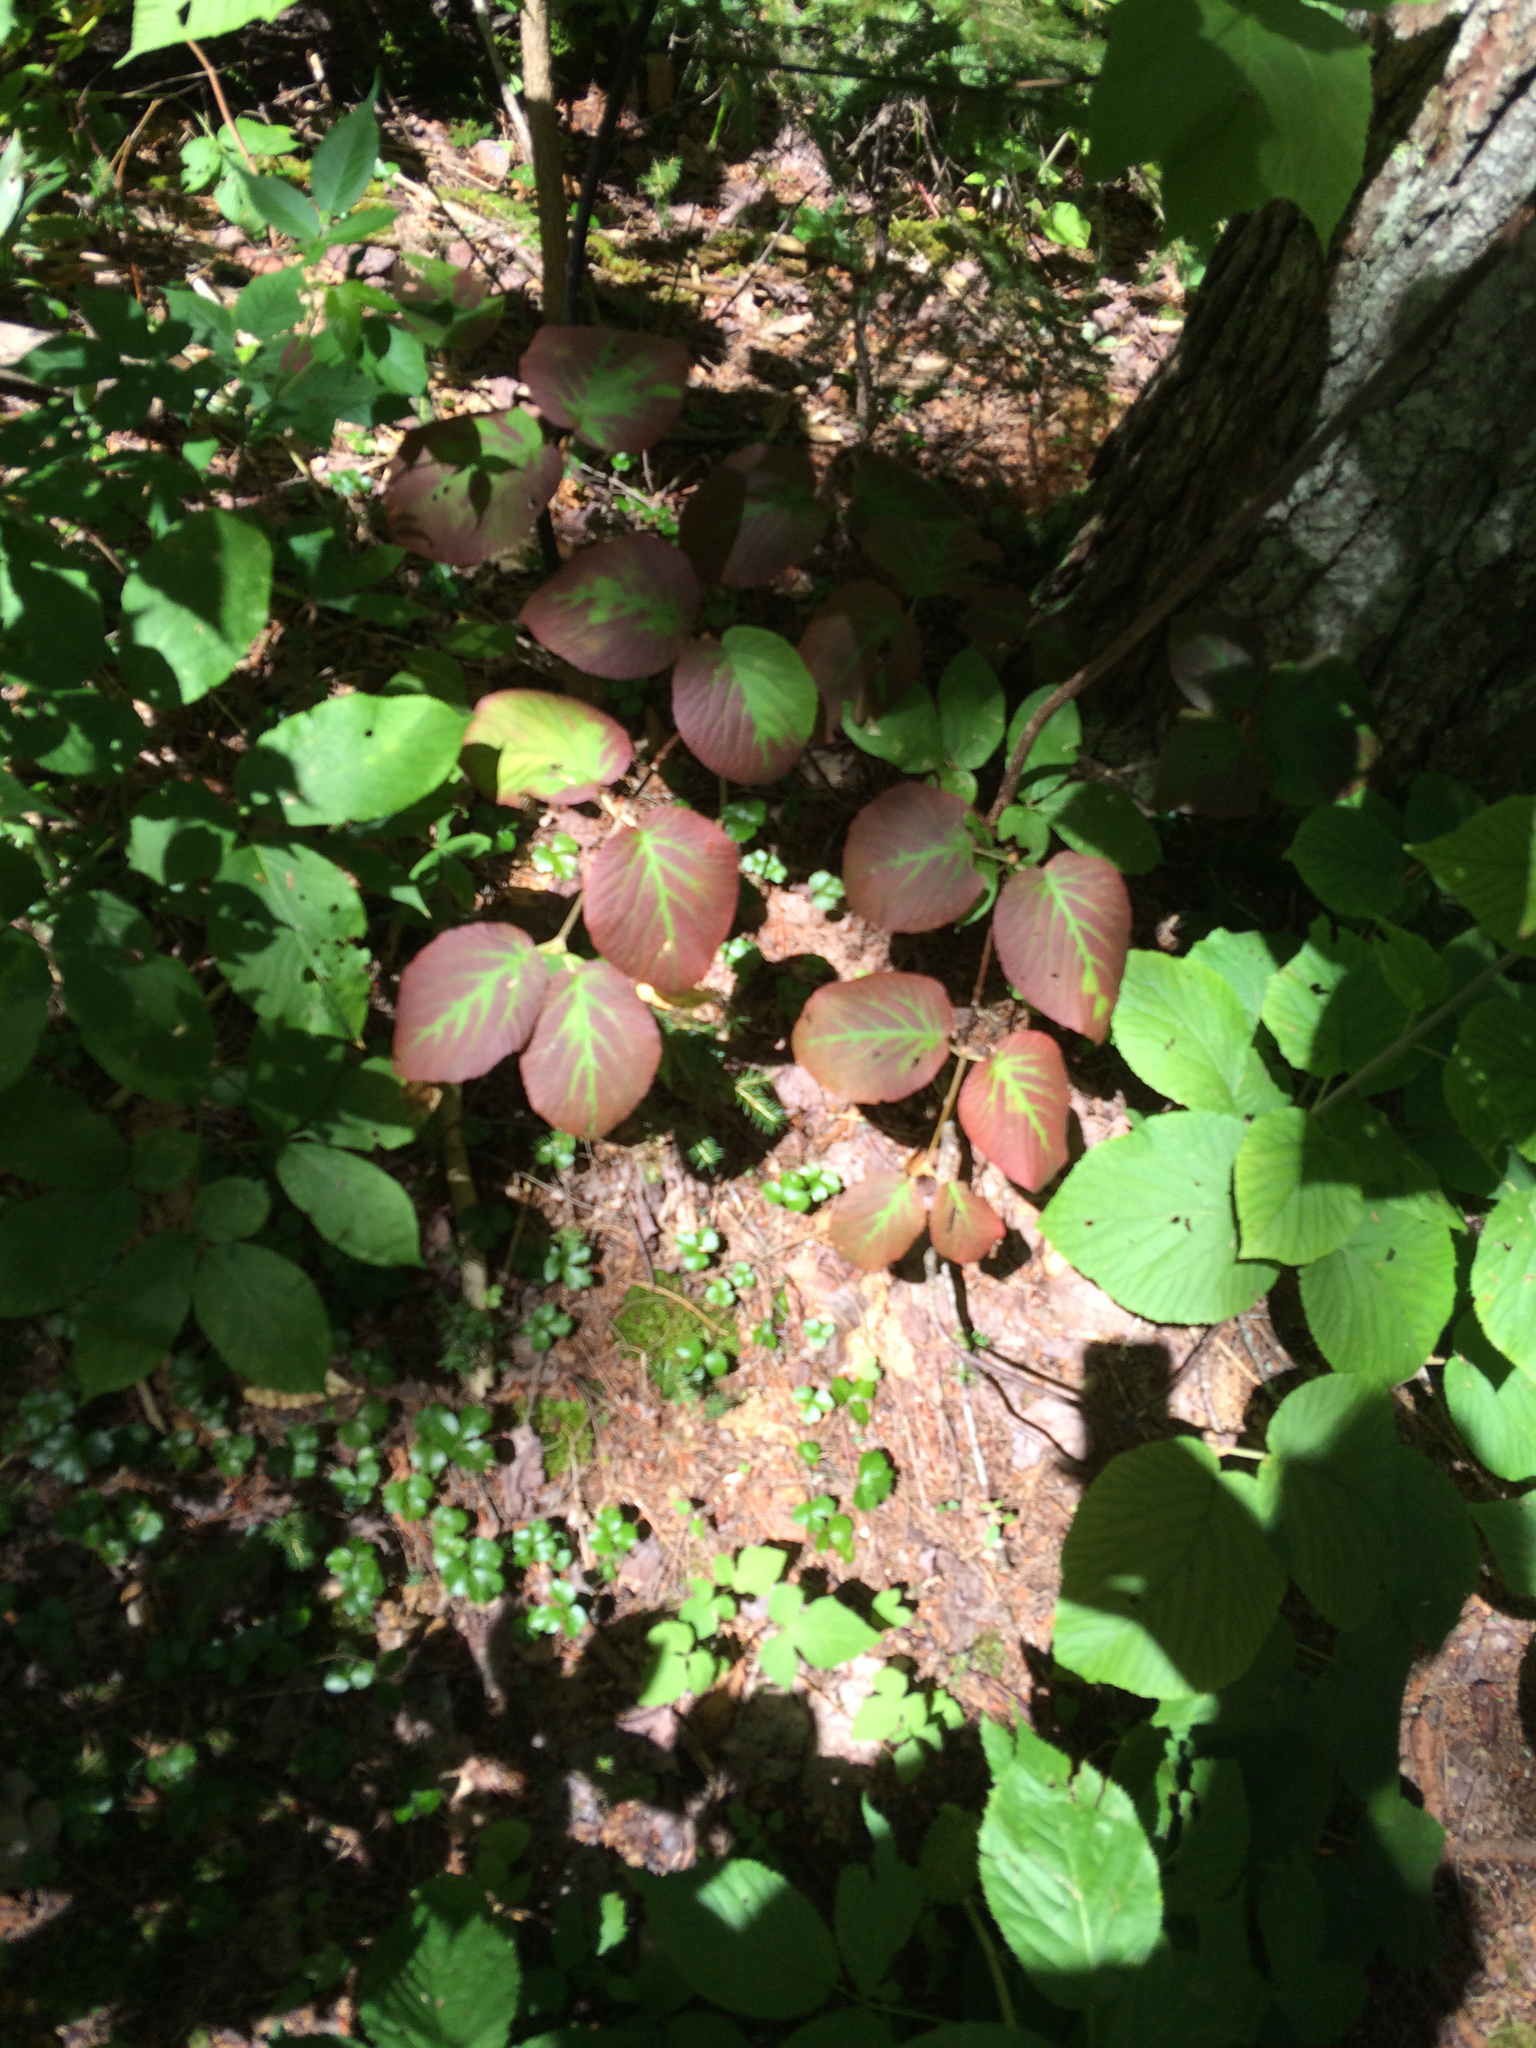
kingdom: Plantae
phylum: Tracheophyta
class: Magnoliopsida
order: Dipsacales
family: Viburnaceae
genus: Viburnum
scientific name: Viburnum lantanoides
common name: Hobblebush
